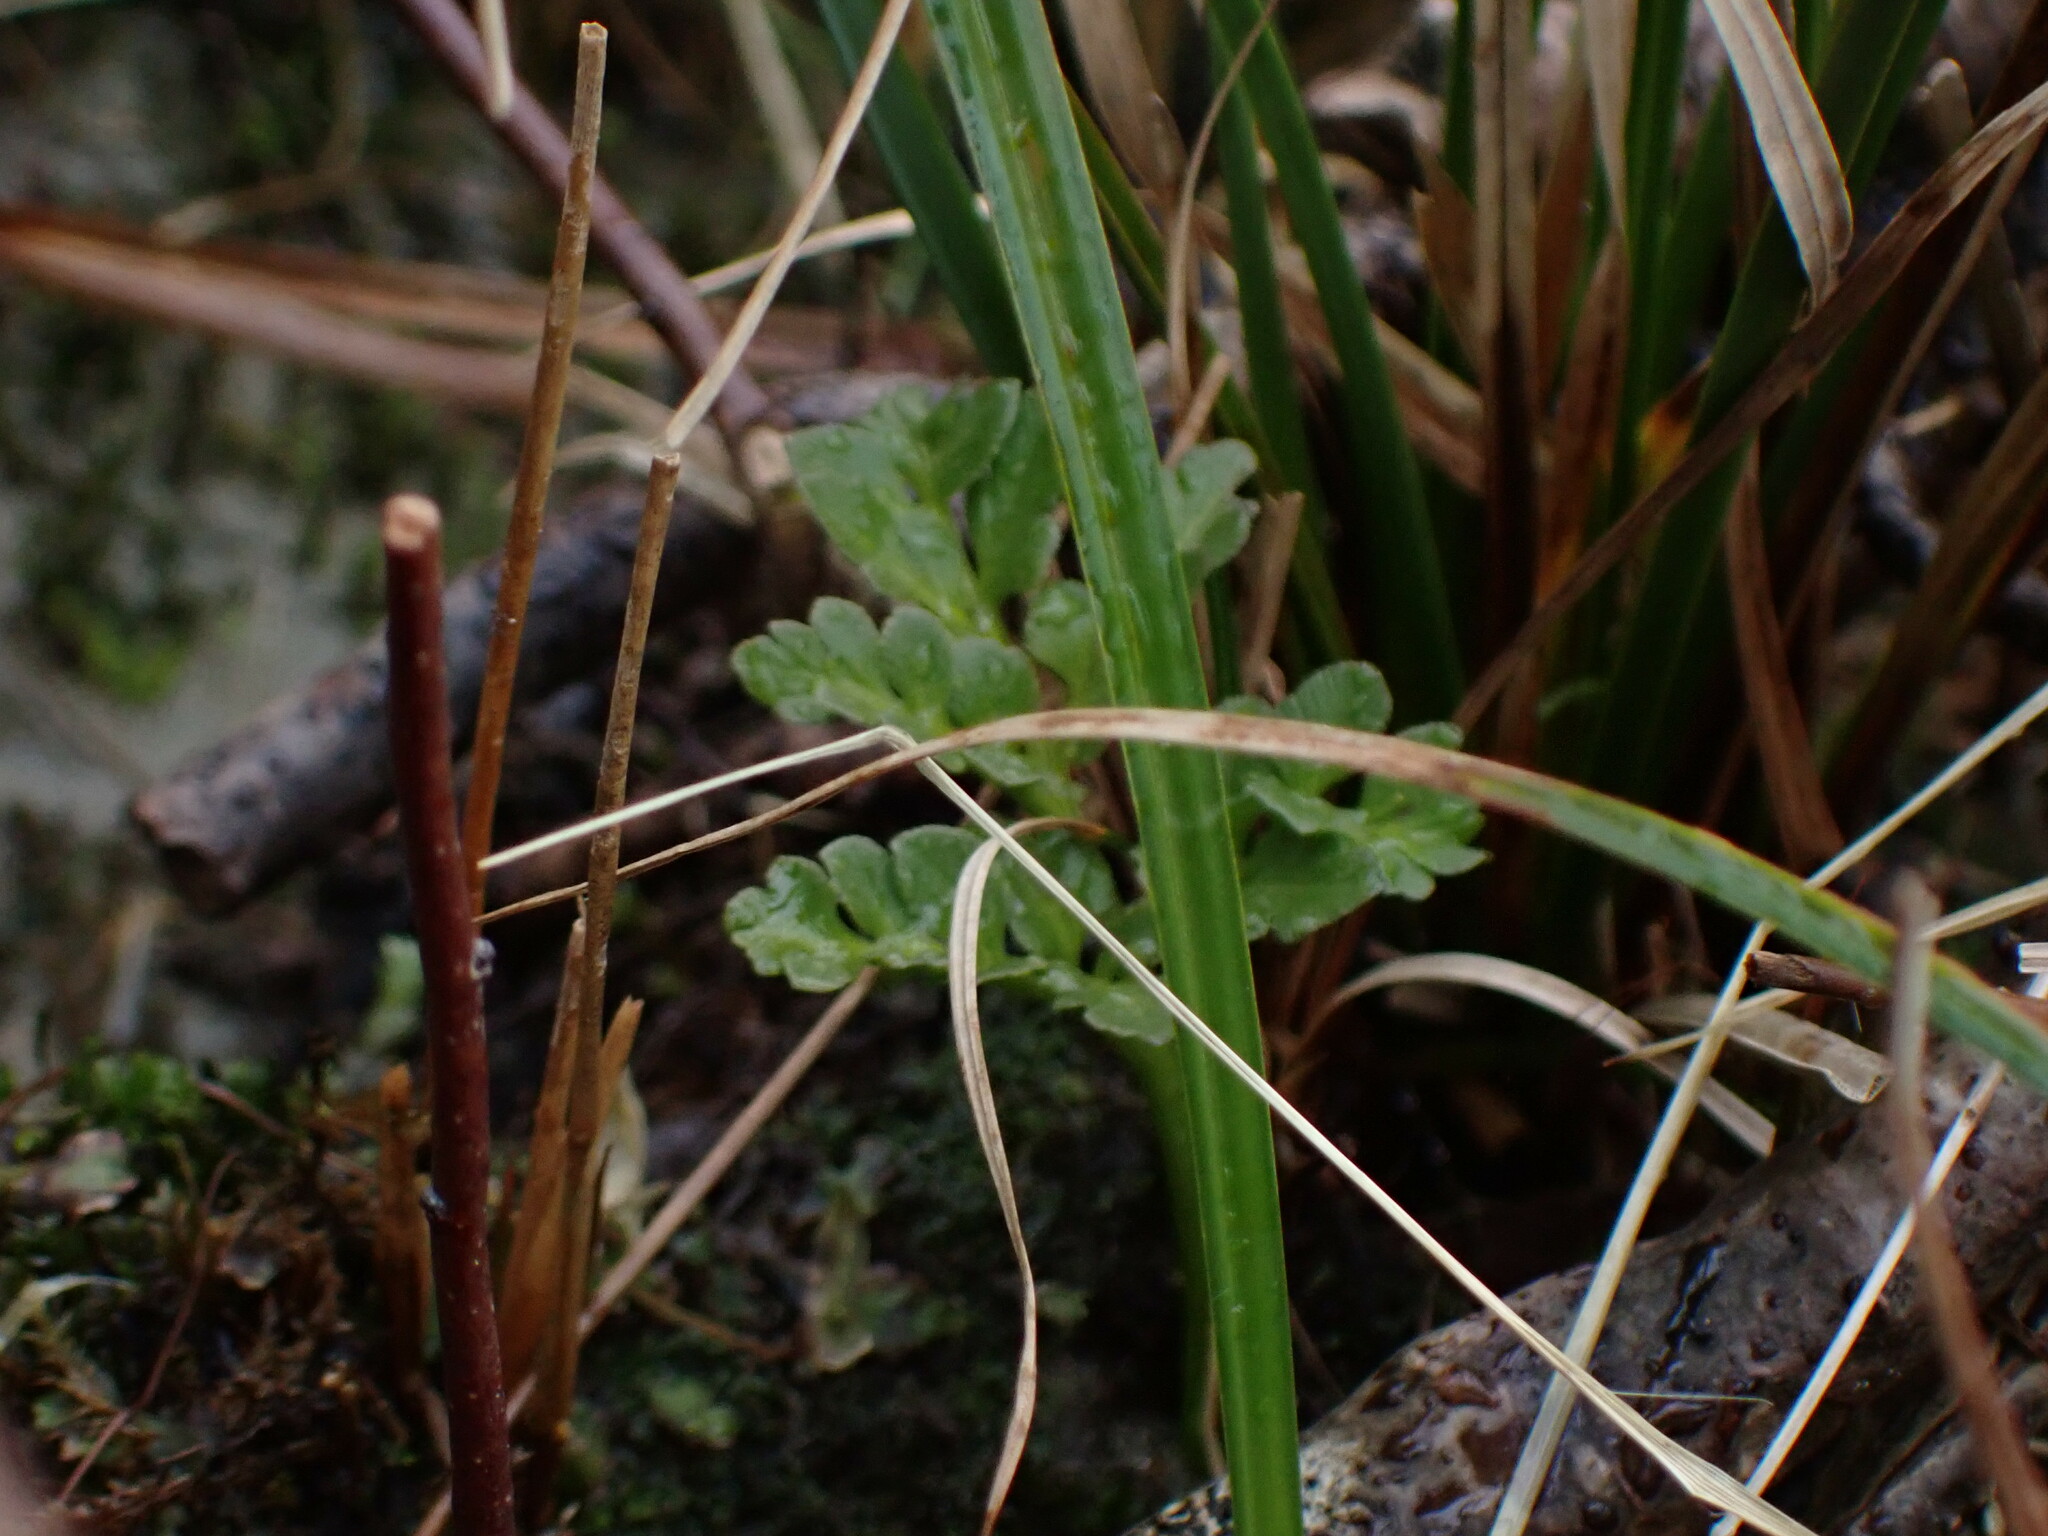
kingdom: Plantae
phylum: Tracheophyta
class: Polypodiopsida
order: Ophioglossales
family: Ophioglossaceae
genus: Sceptridium
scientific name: Sceptridium multifidum
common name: Leathery grape fern
